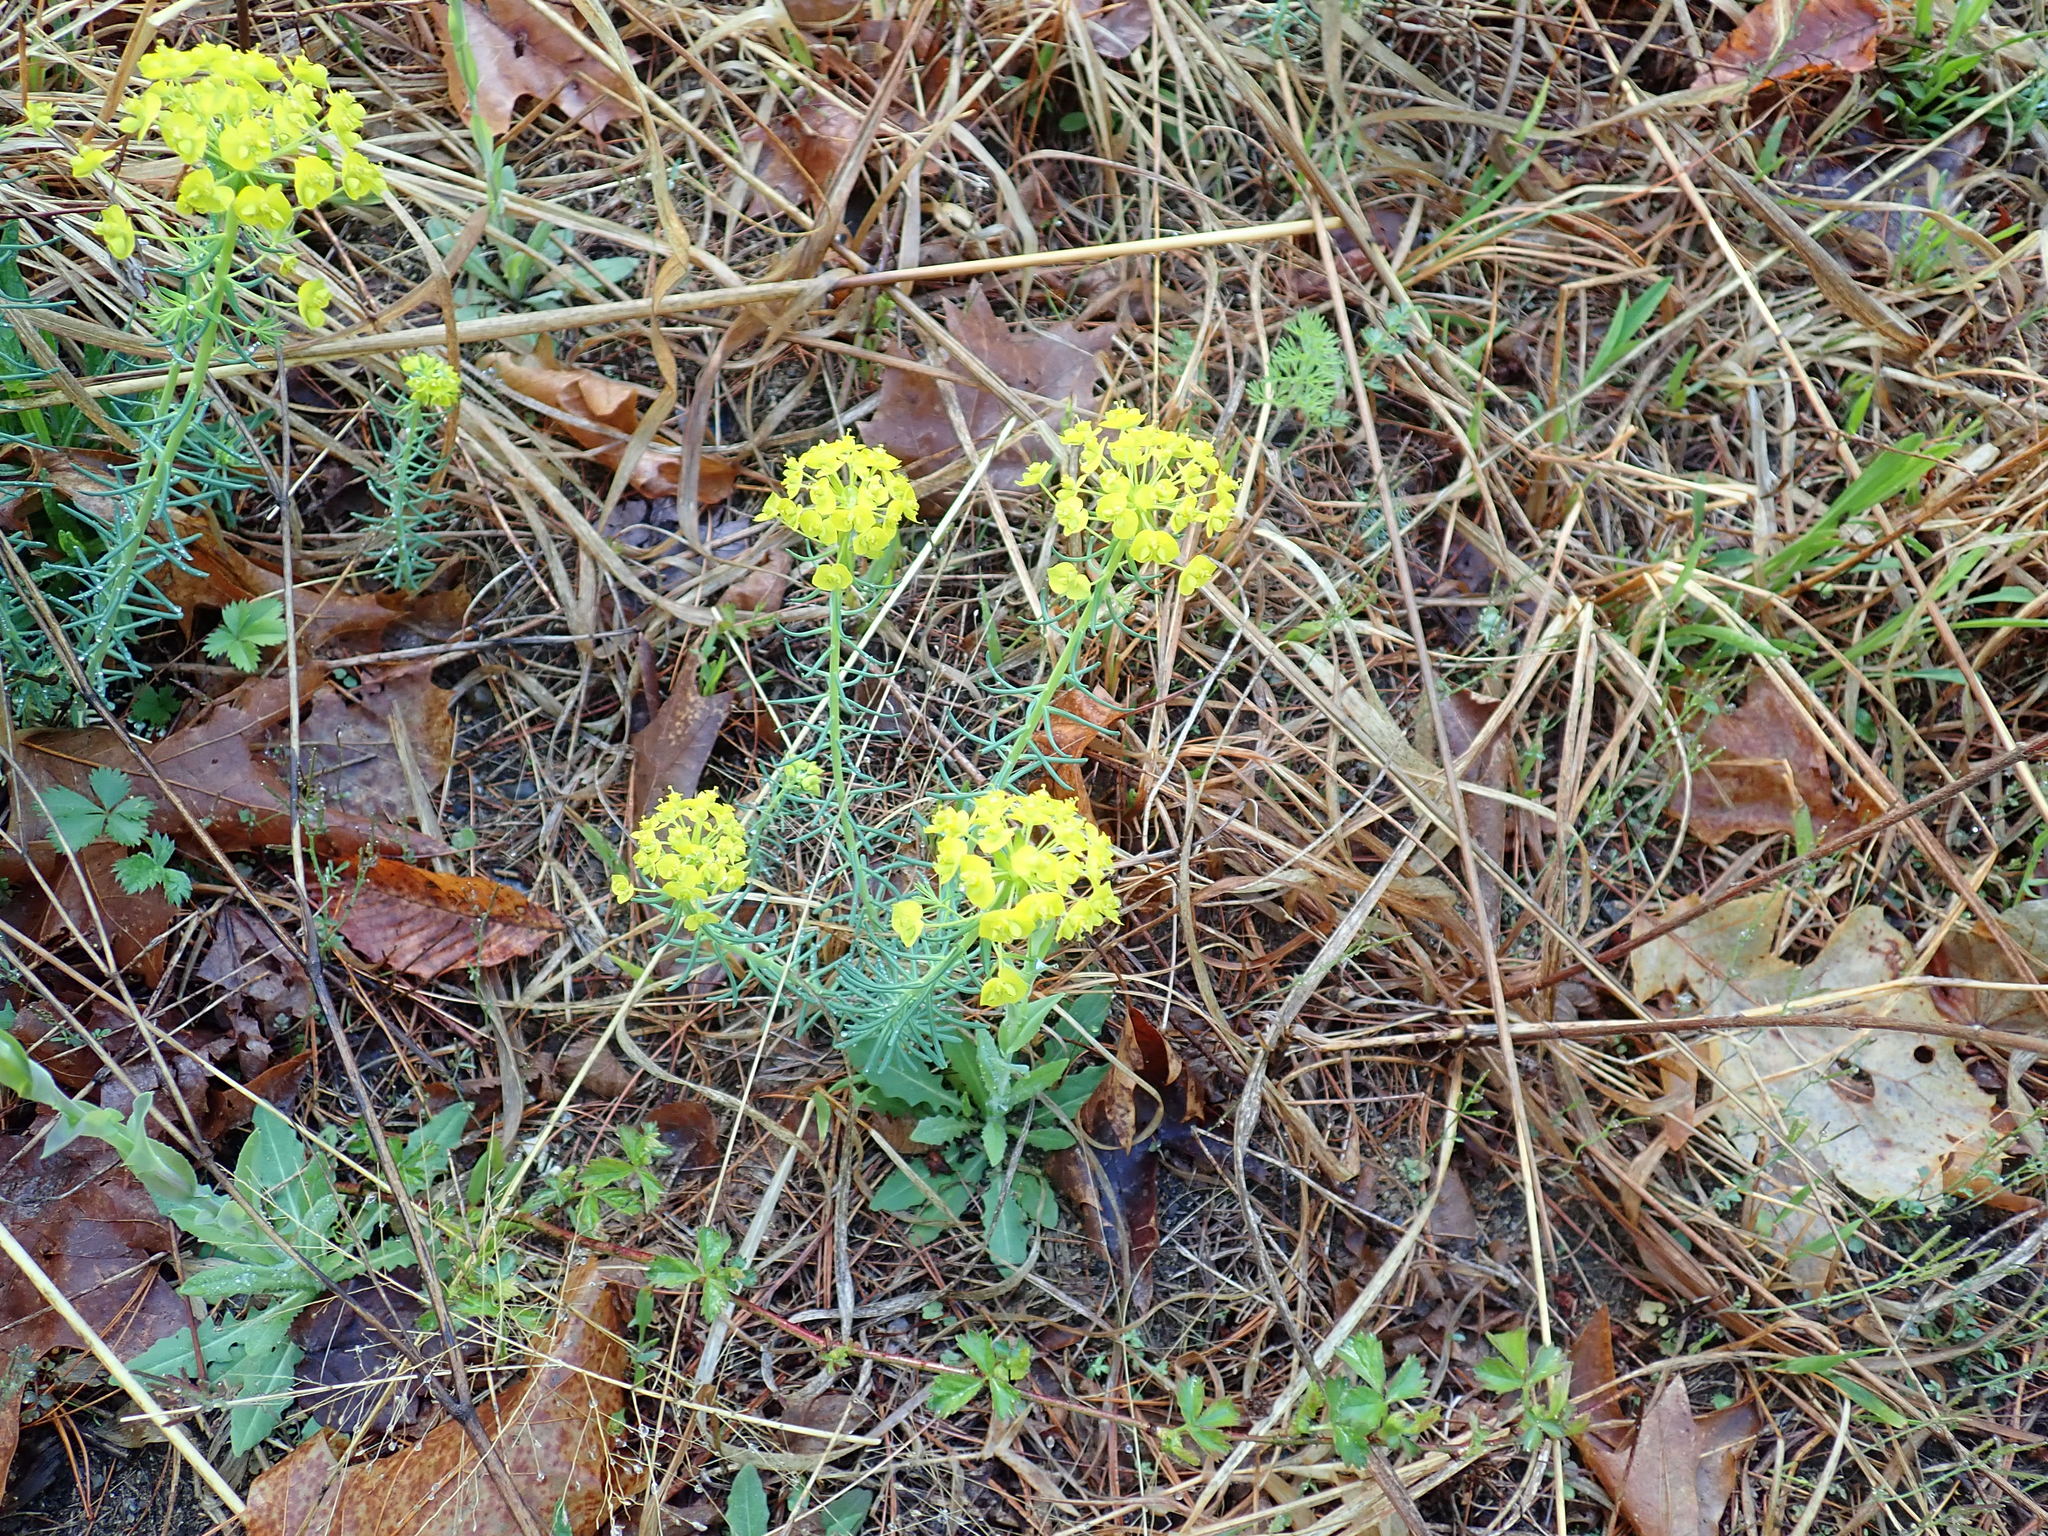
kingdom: Plantae
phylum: Tracheophyta
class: Magnoliopsida
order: Malpighiales
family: Euphorbiaceae
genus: Euphorbia
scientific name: Euphorbia cyparissias
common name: Cypress spurge
